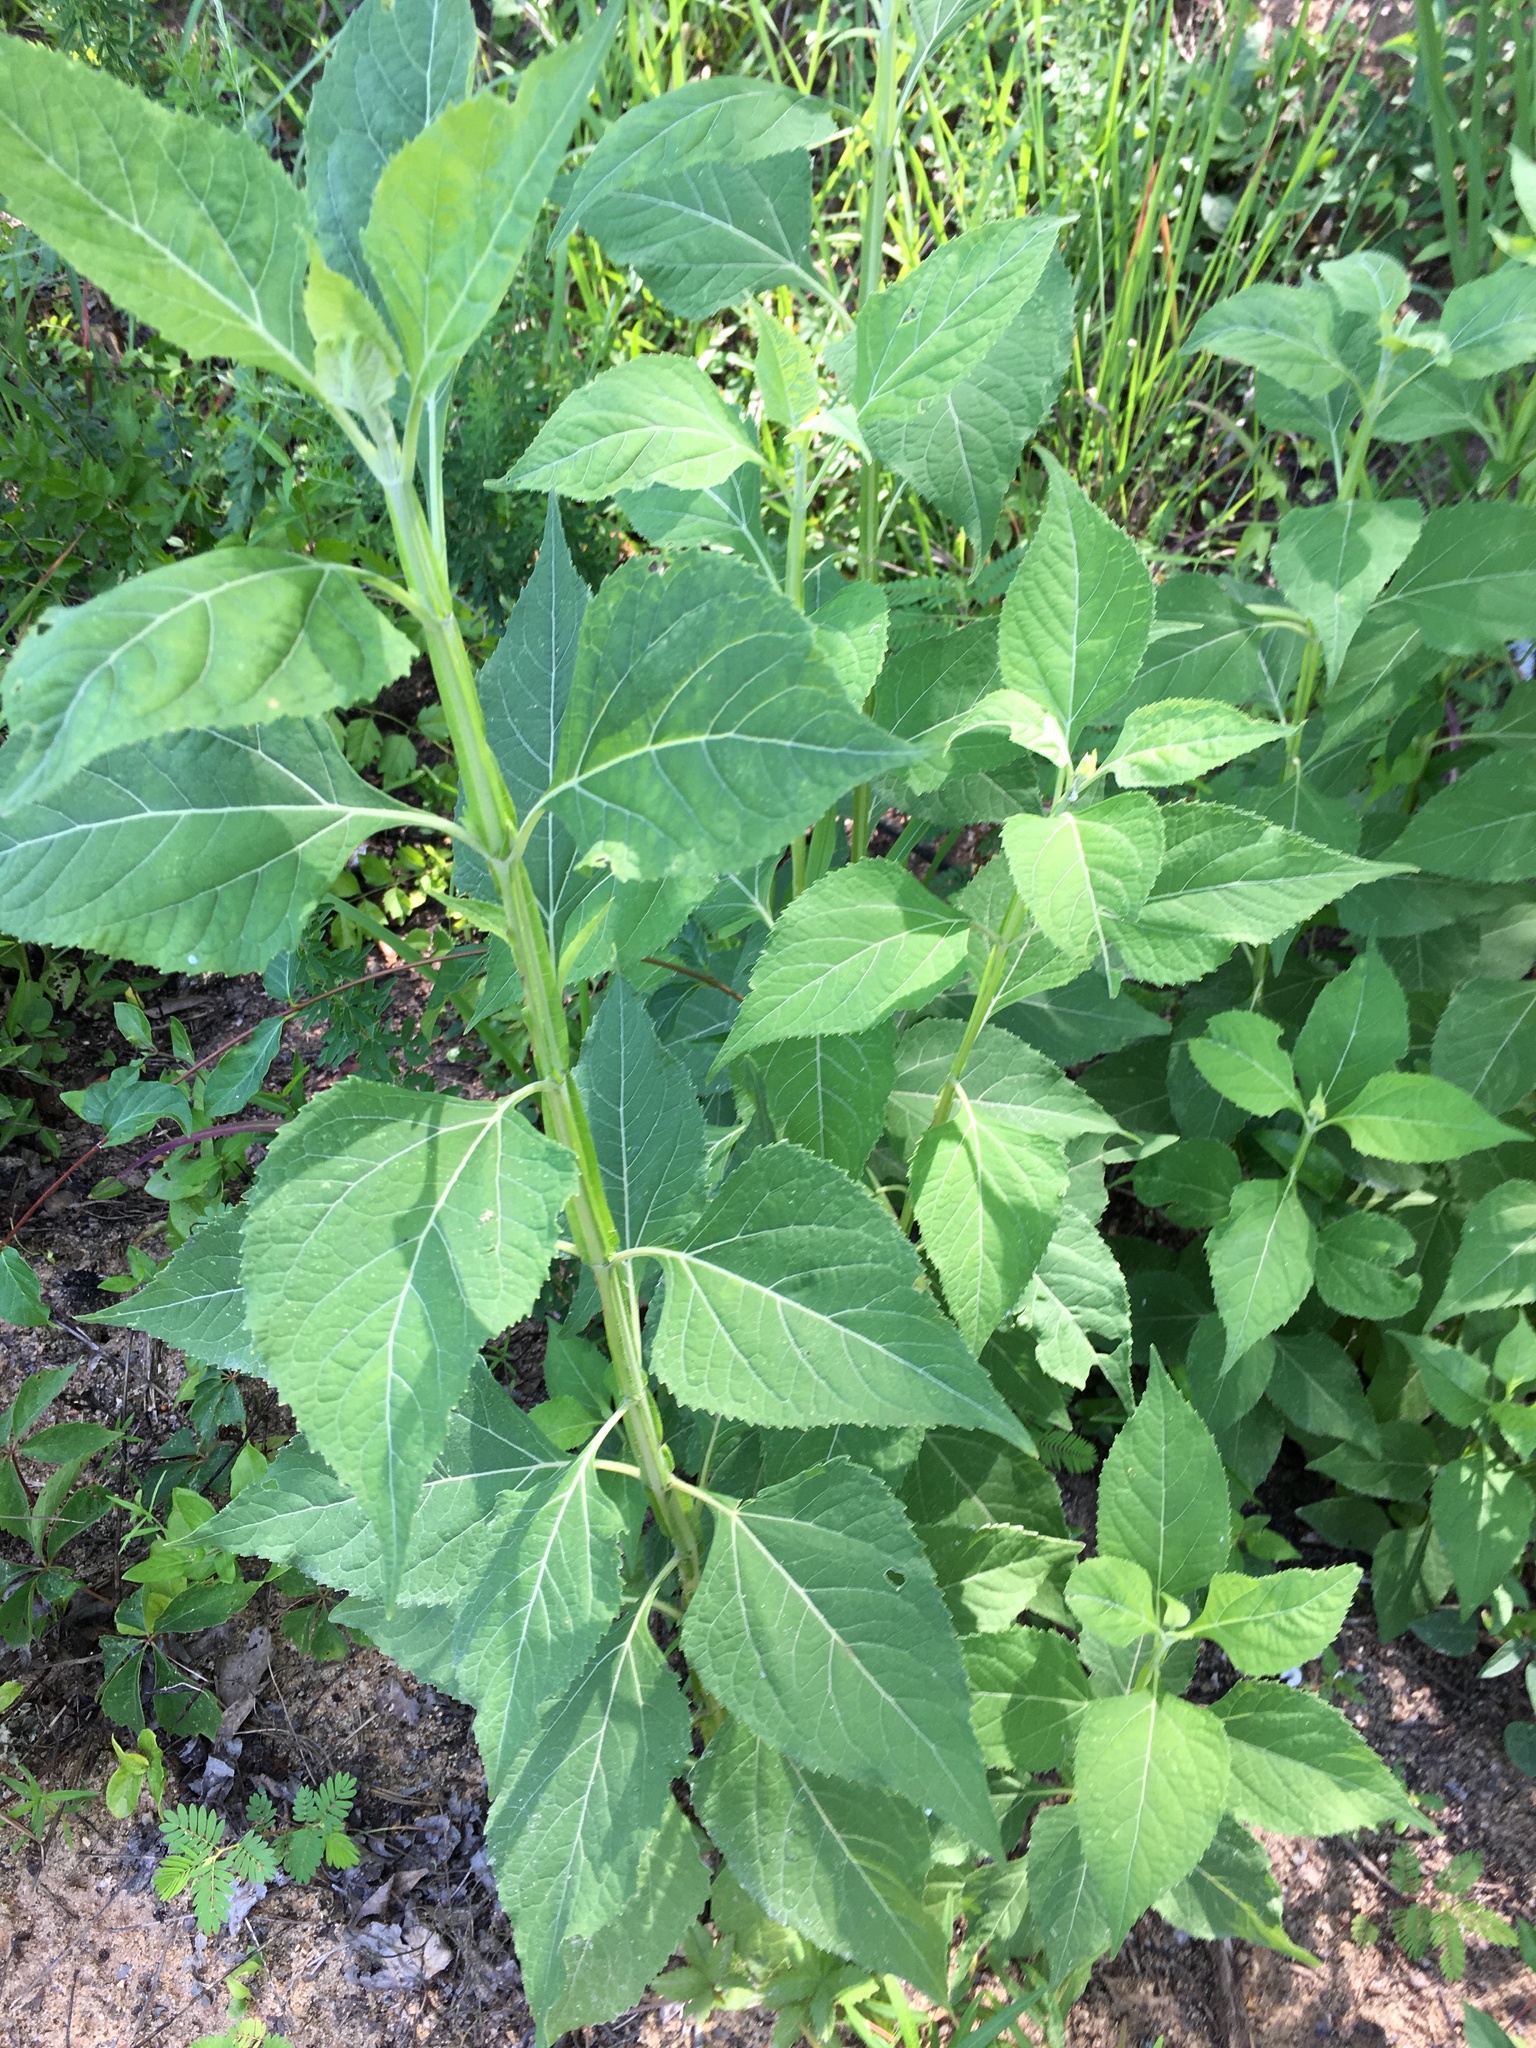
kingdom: Plantae
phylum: Tracheophyta
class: Magnoliopsida
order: Asterales
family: Asteraceae
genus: Verbesina
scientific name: Verbesina occidentalis
